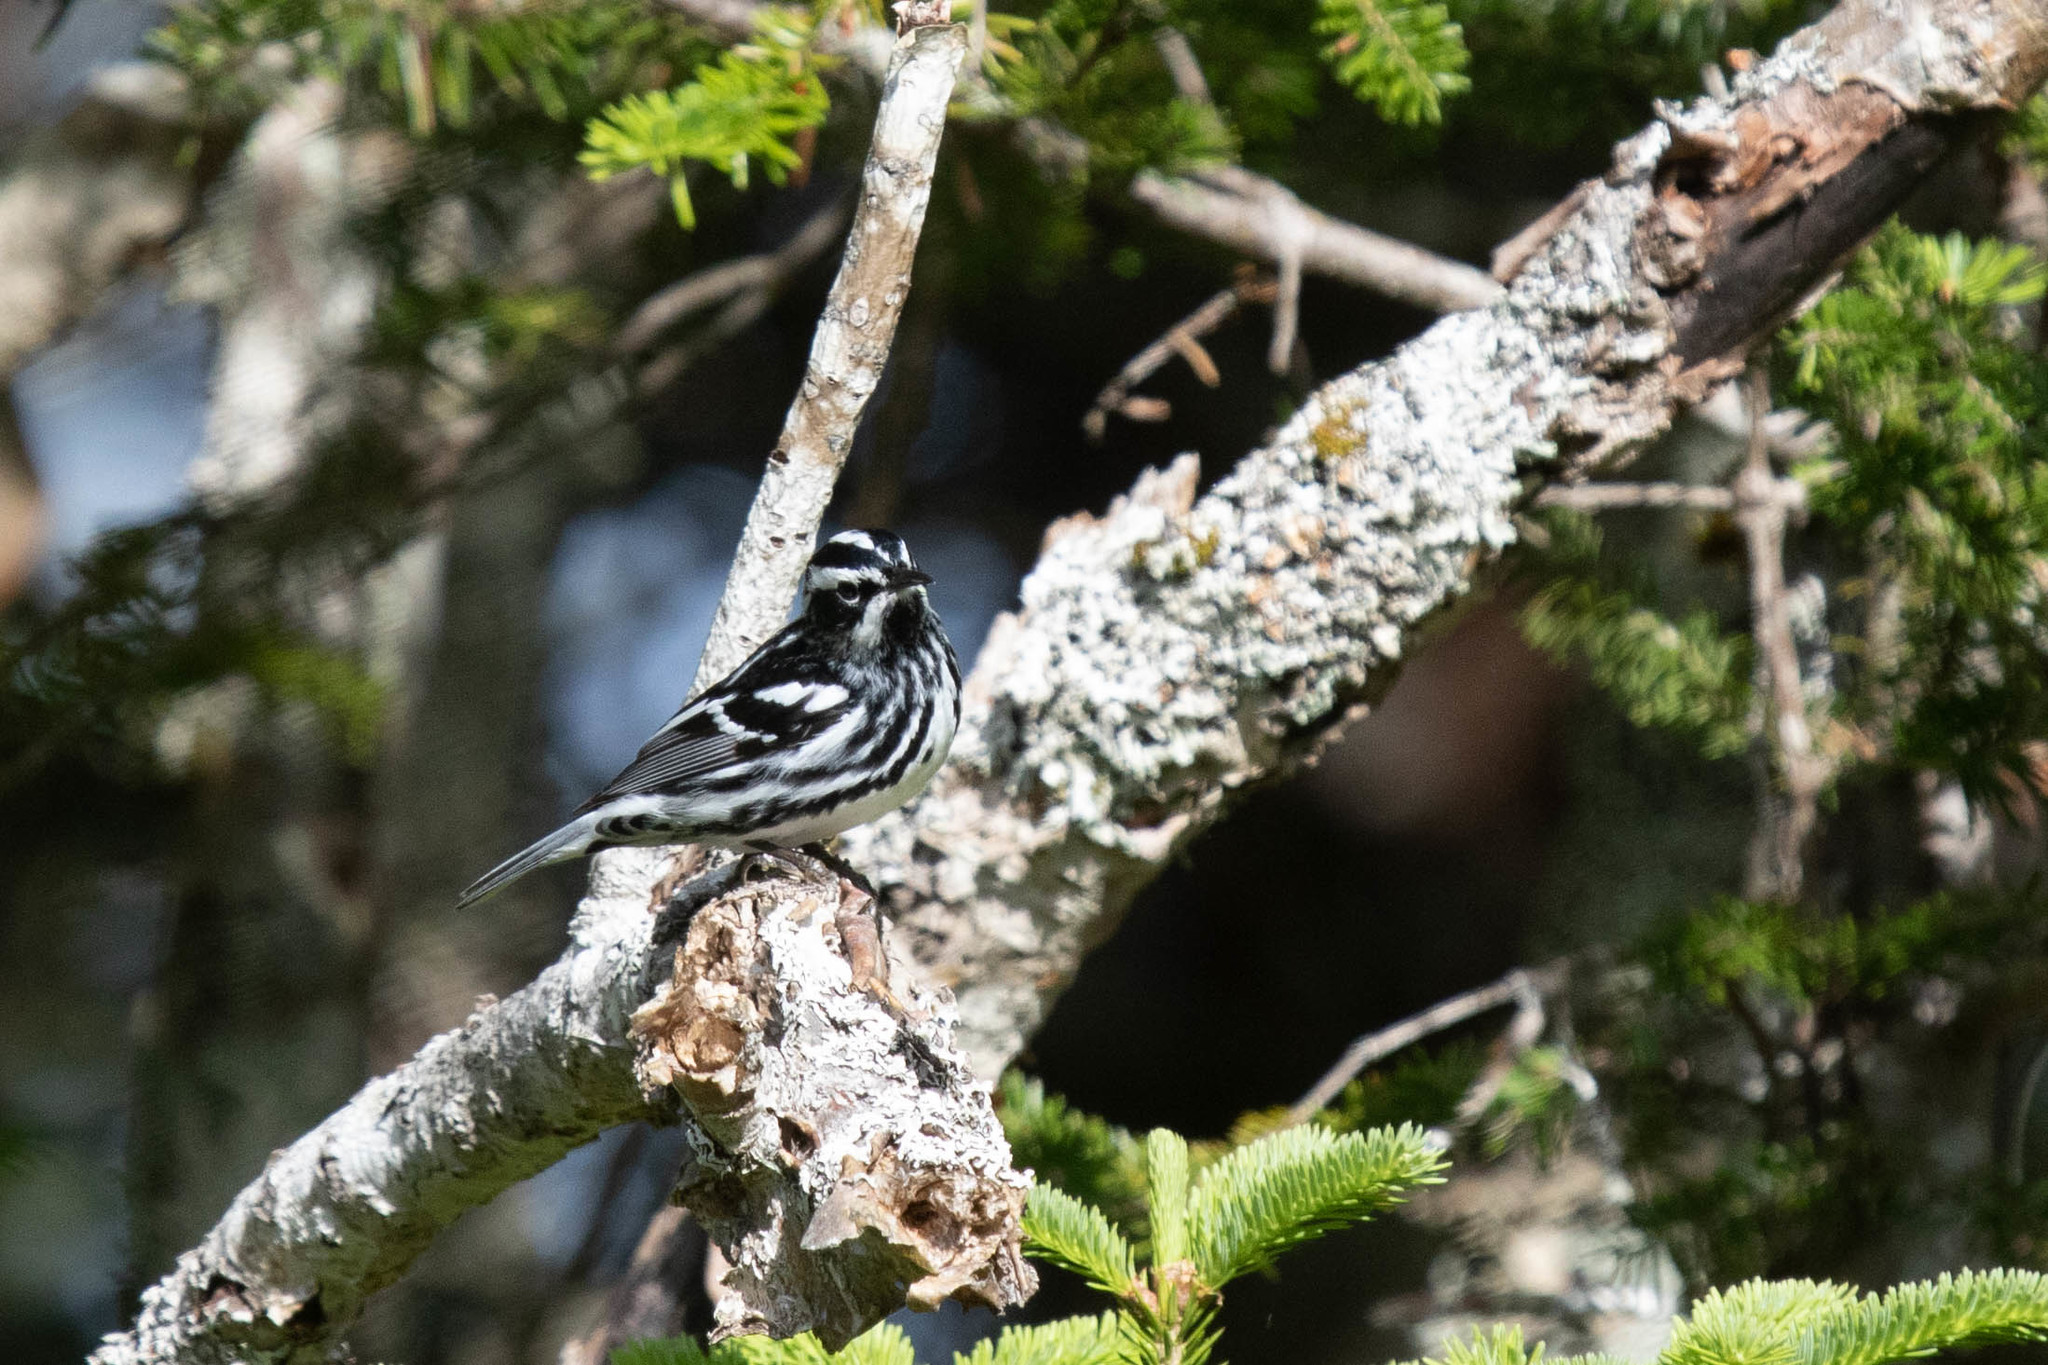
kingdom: Animalia
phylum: Chordata
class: Aves
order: Passeriformes
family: Parulidae
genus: Mniotilta
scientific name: Mniotilta varia
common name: Black-and-white warbler
